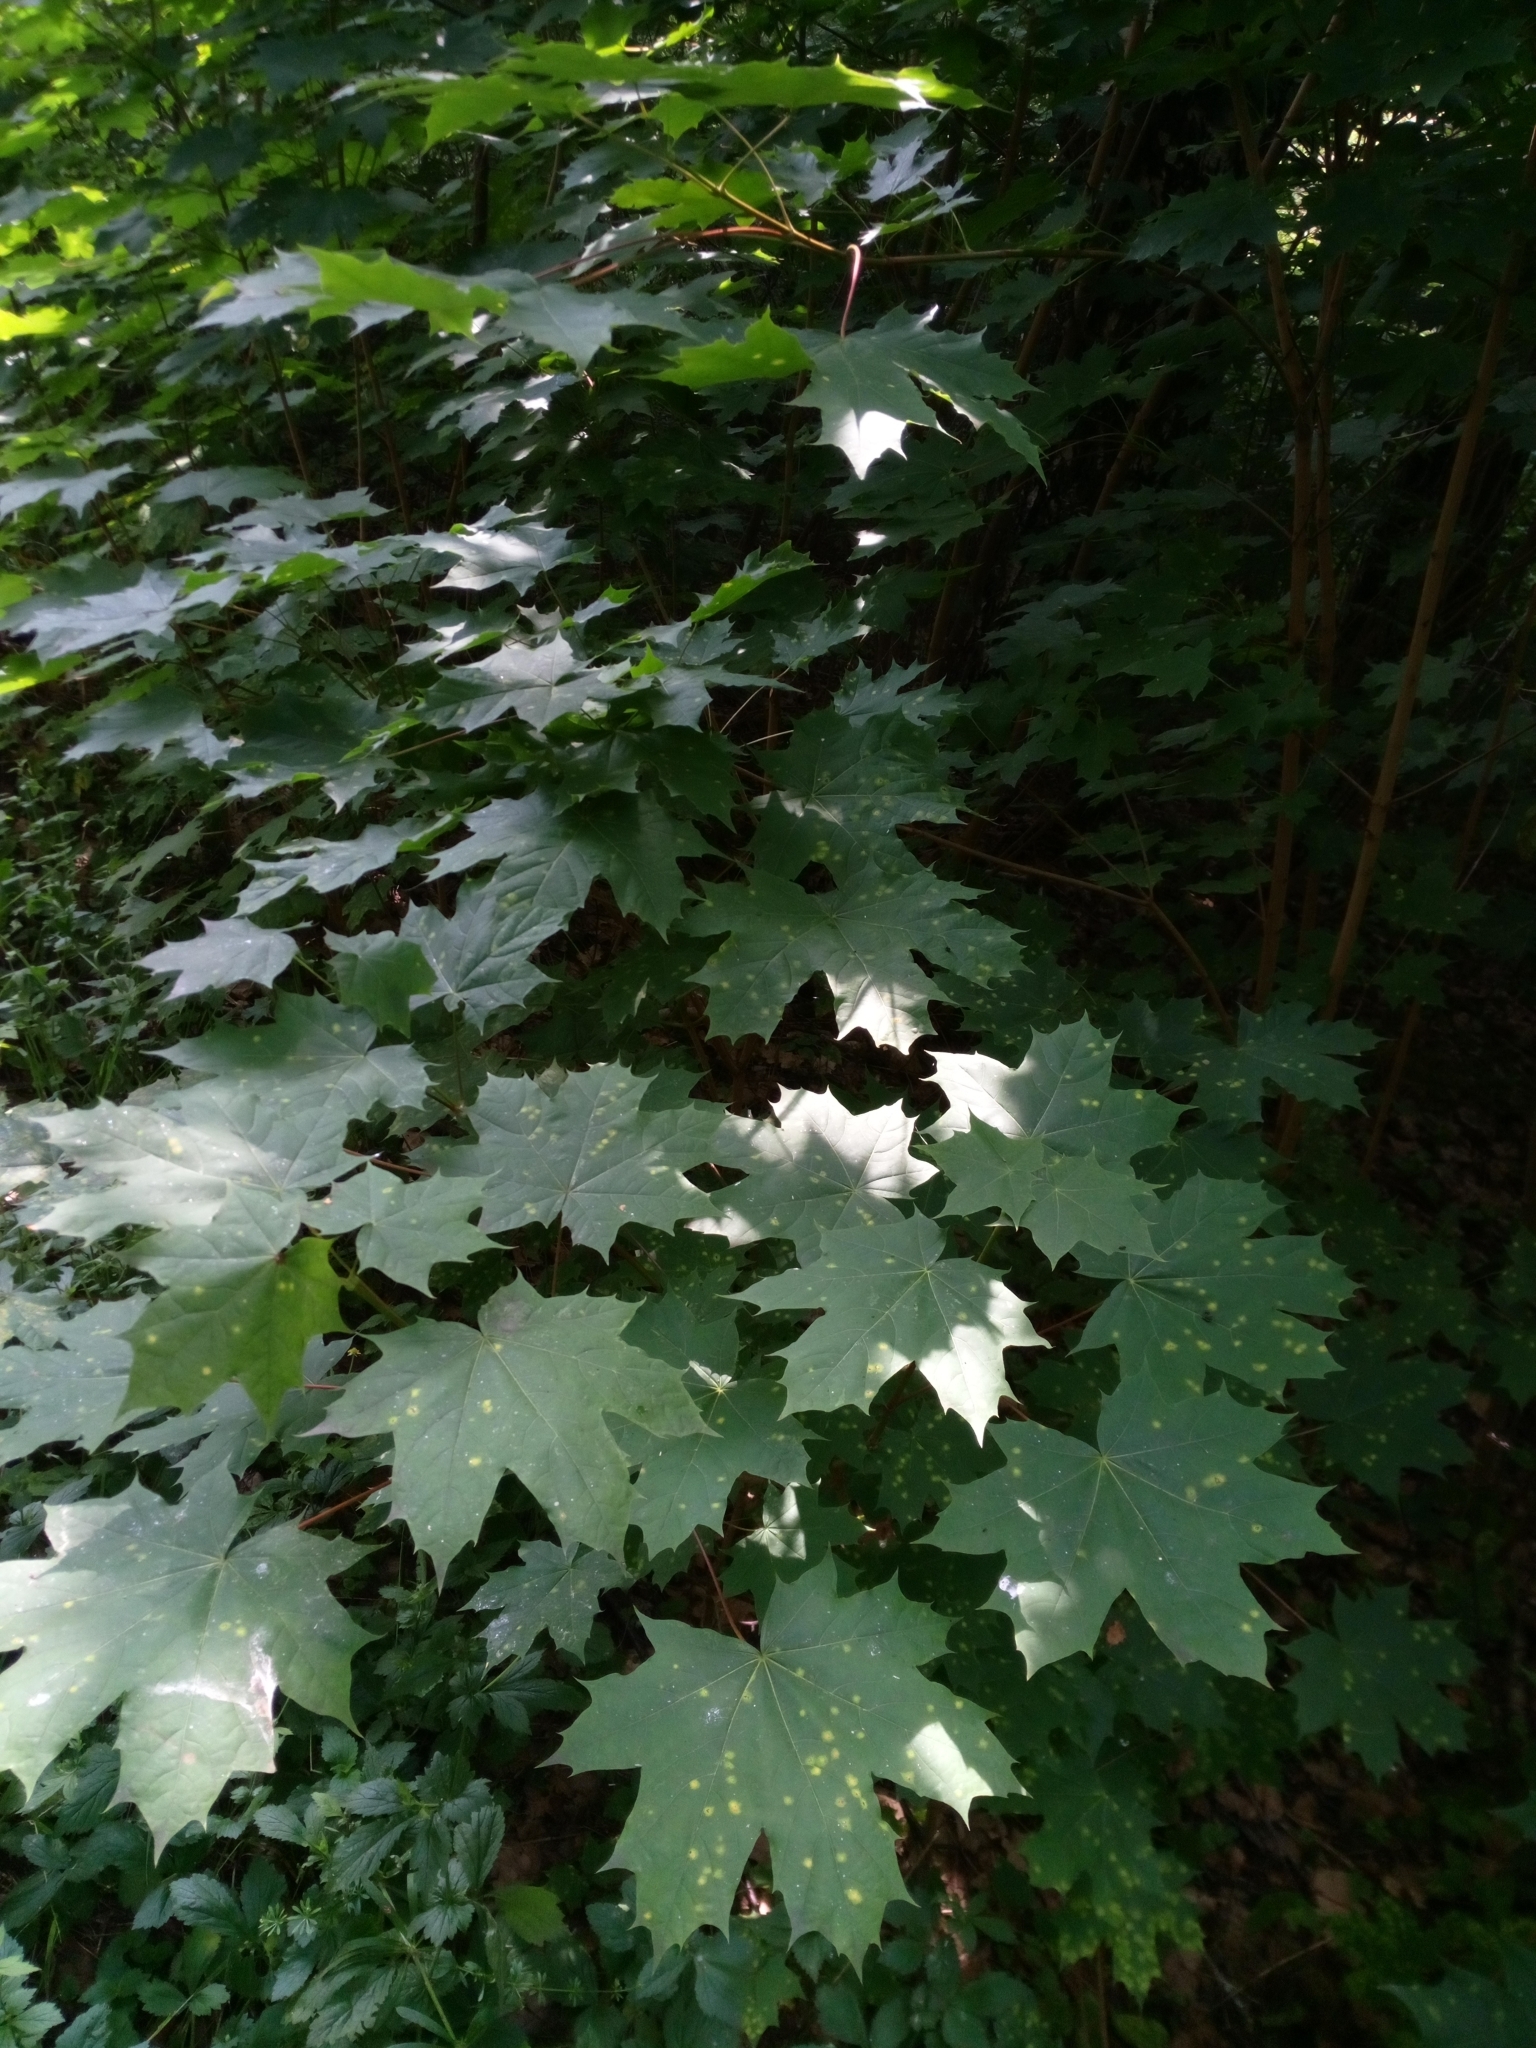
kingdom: Plantae
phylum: Tracheophyta
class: Magnoliopsida
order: Sapindales
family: Sapindaceae
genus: Acer
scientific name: Acer platanoides
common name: Norway maple
